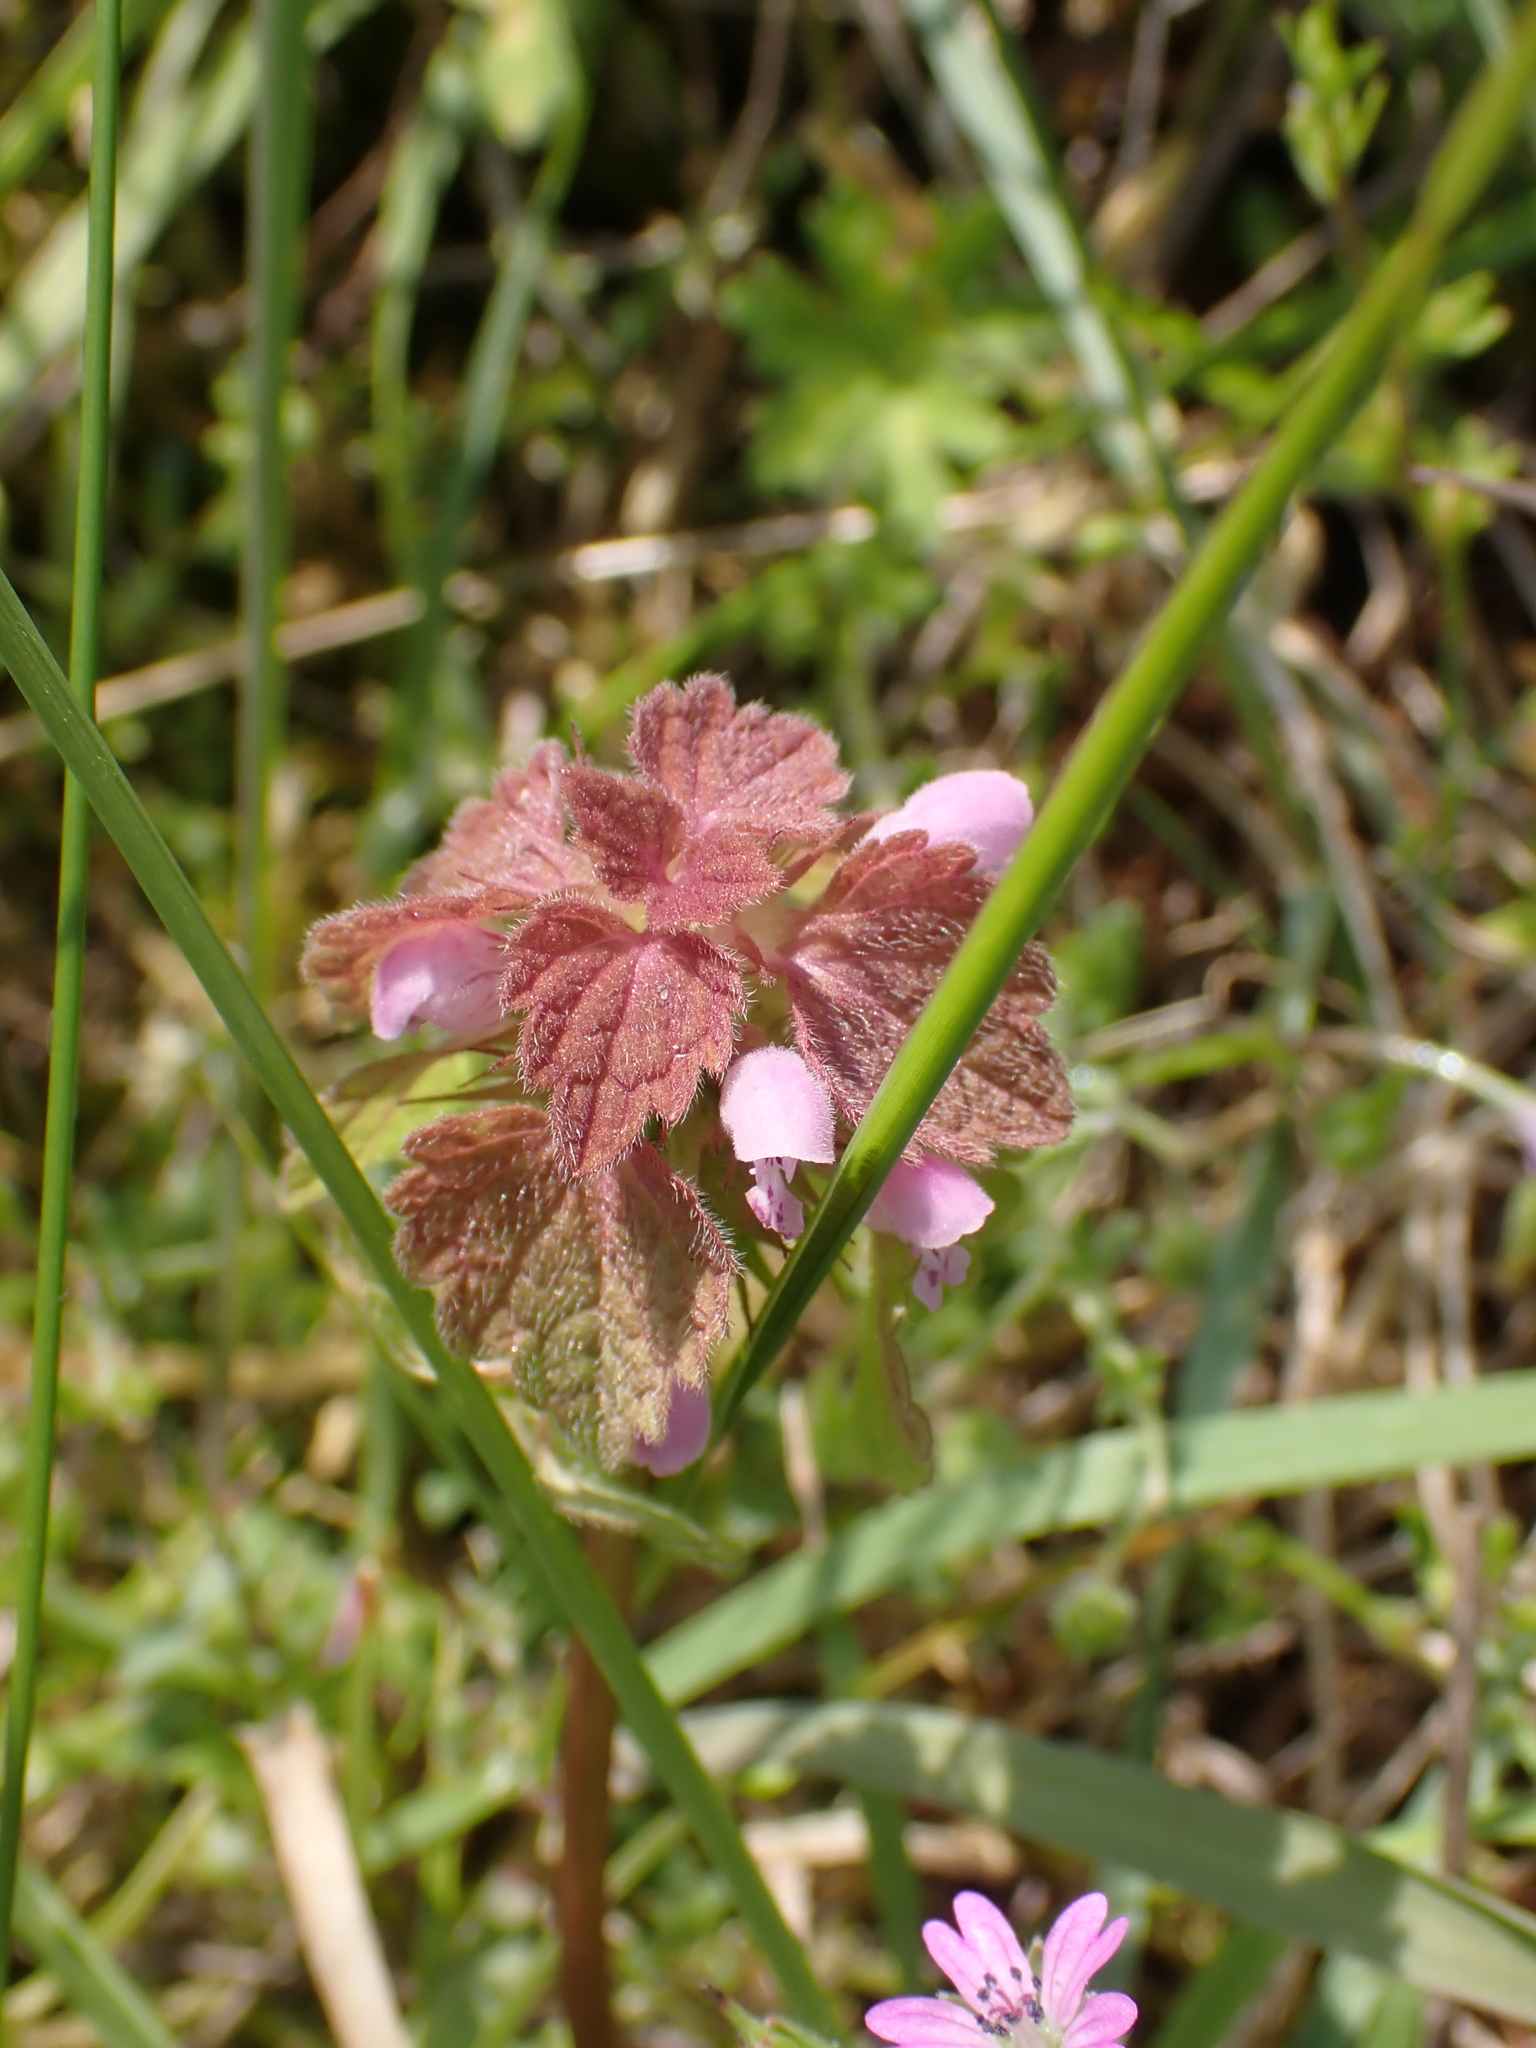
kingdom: Plantae
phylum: Tracheophyta
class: Magnoliopsida
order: Lamiales
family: Lamiaceae
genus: Lamium
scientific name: Lamium purpureum
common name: Red dead-nettle
